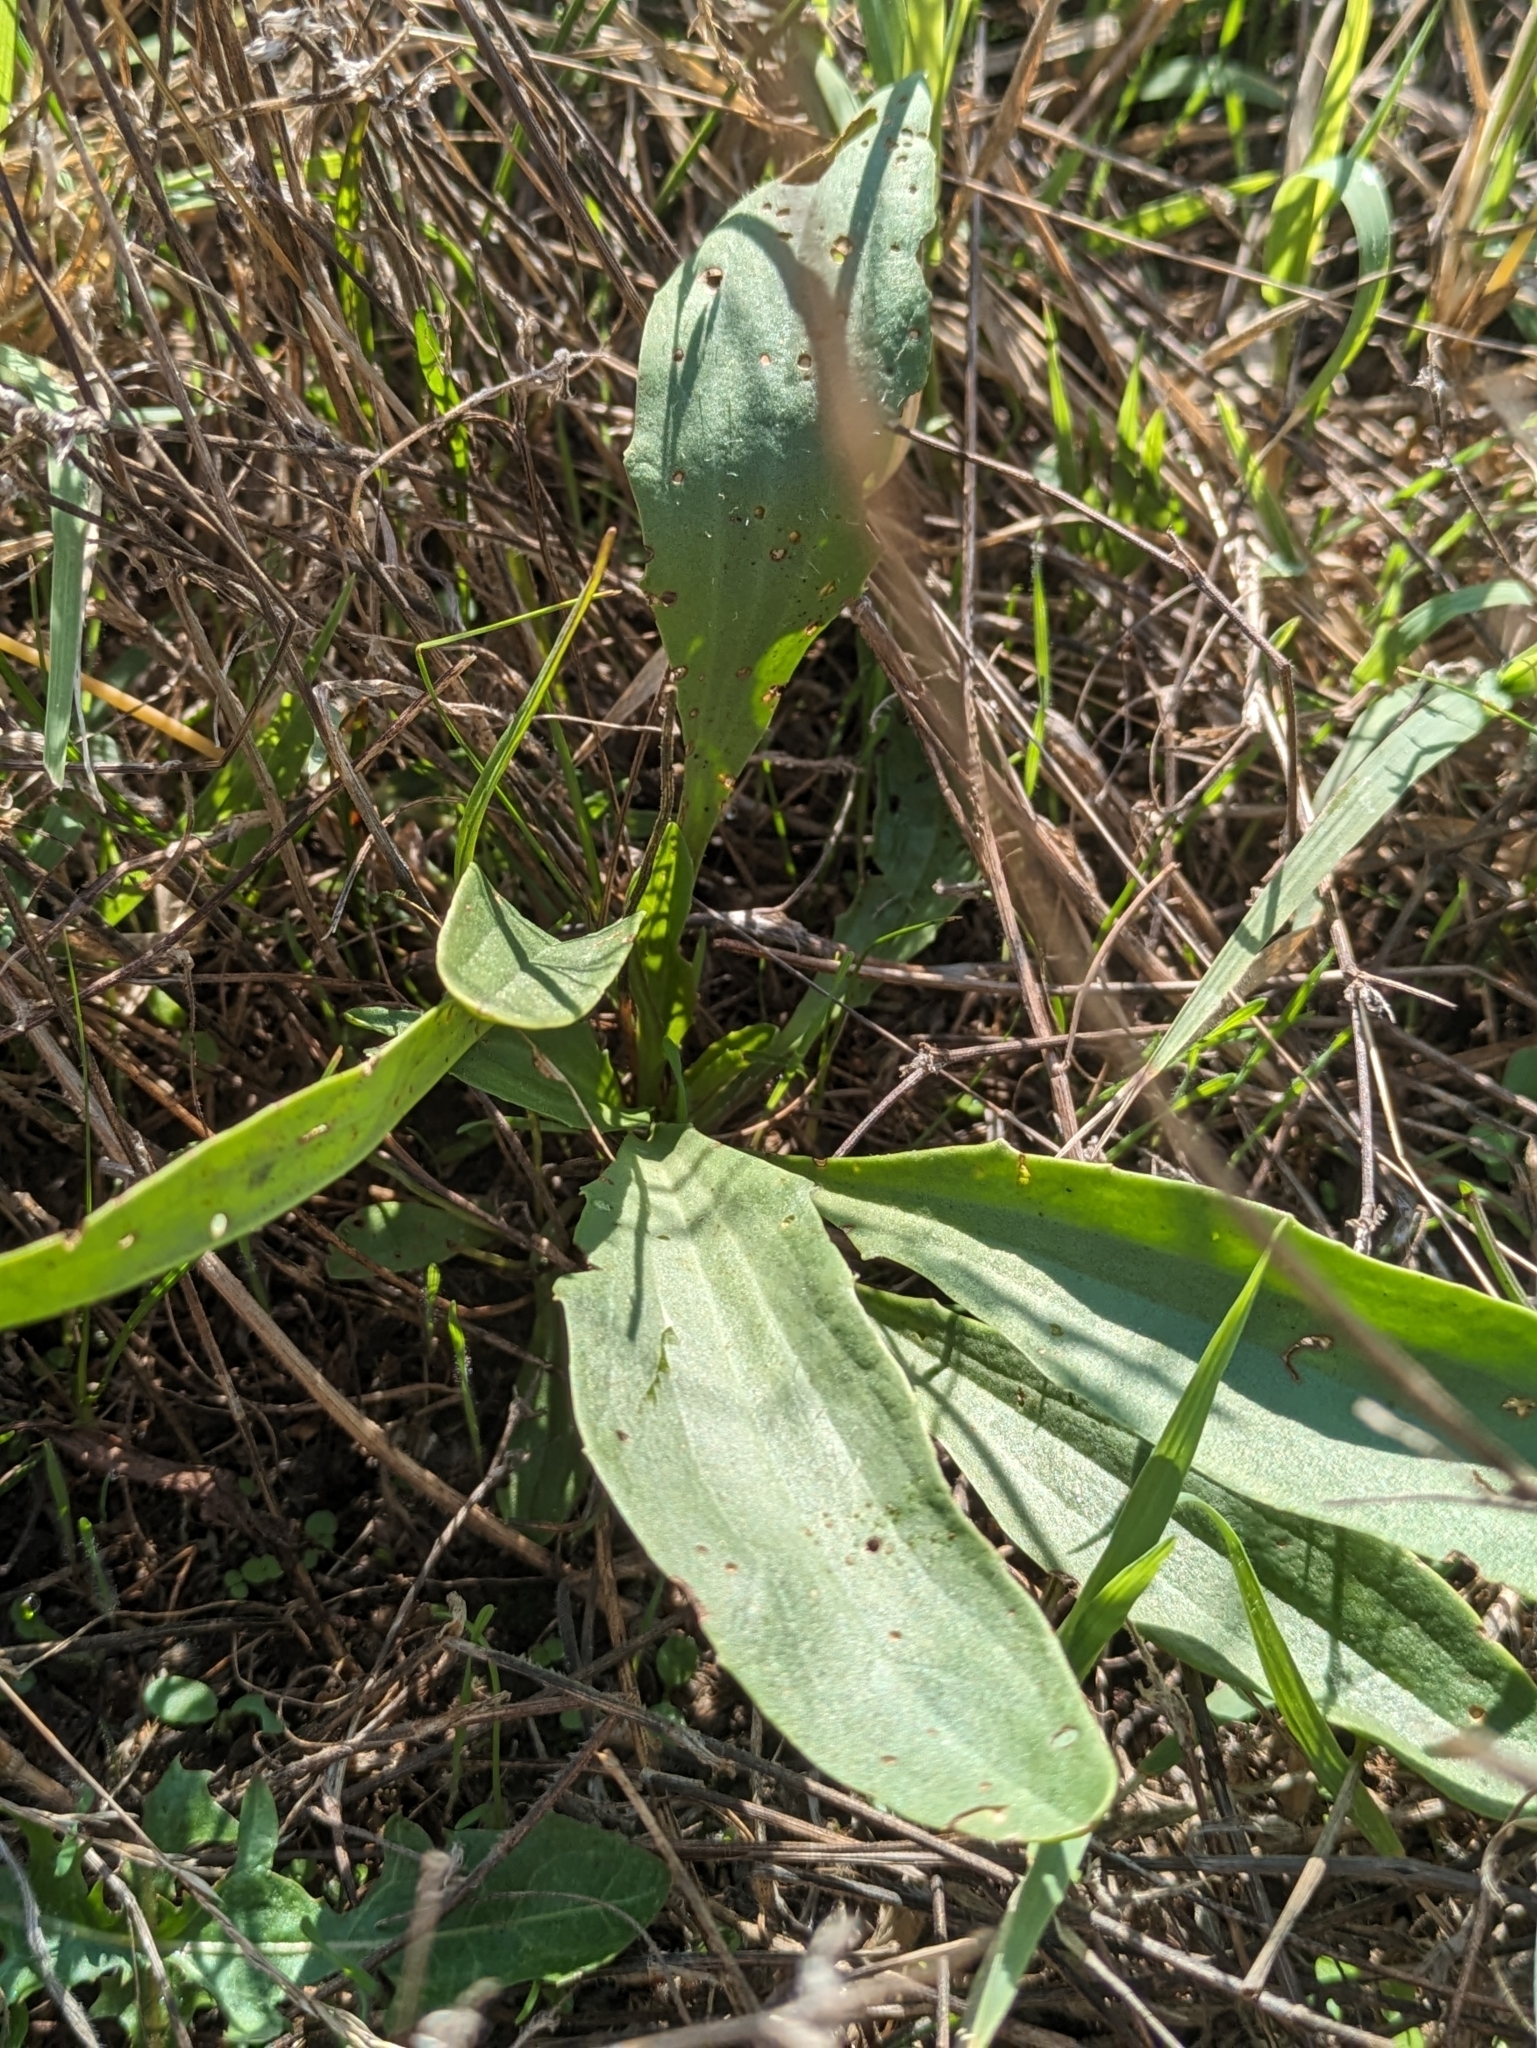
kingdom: Plantae
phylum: Tracheophyta
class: Magnoliopsida
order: Lamiales
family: Plantaginaceae
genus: Plantago
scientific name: Plantago schwarzenbergiana
